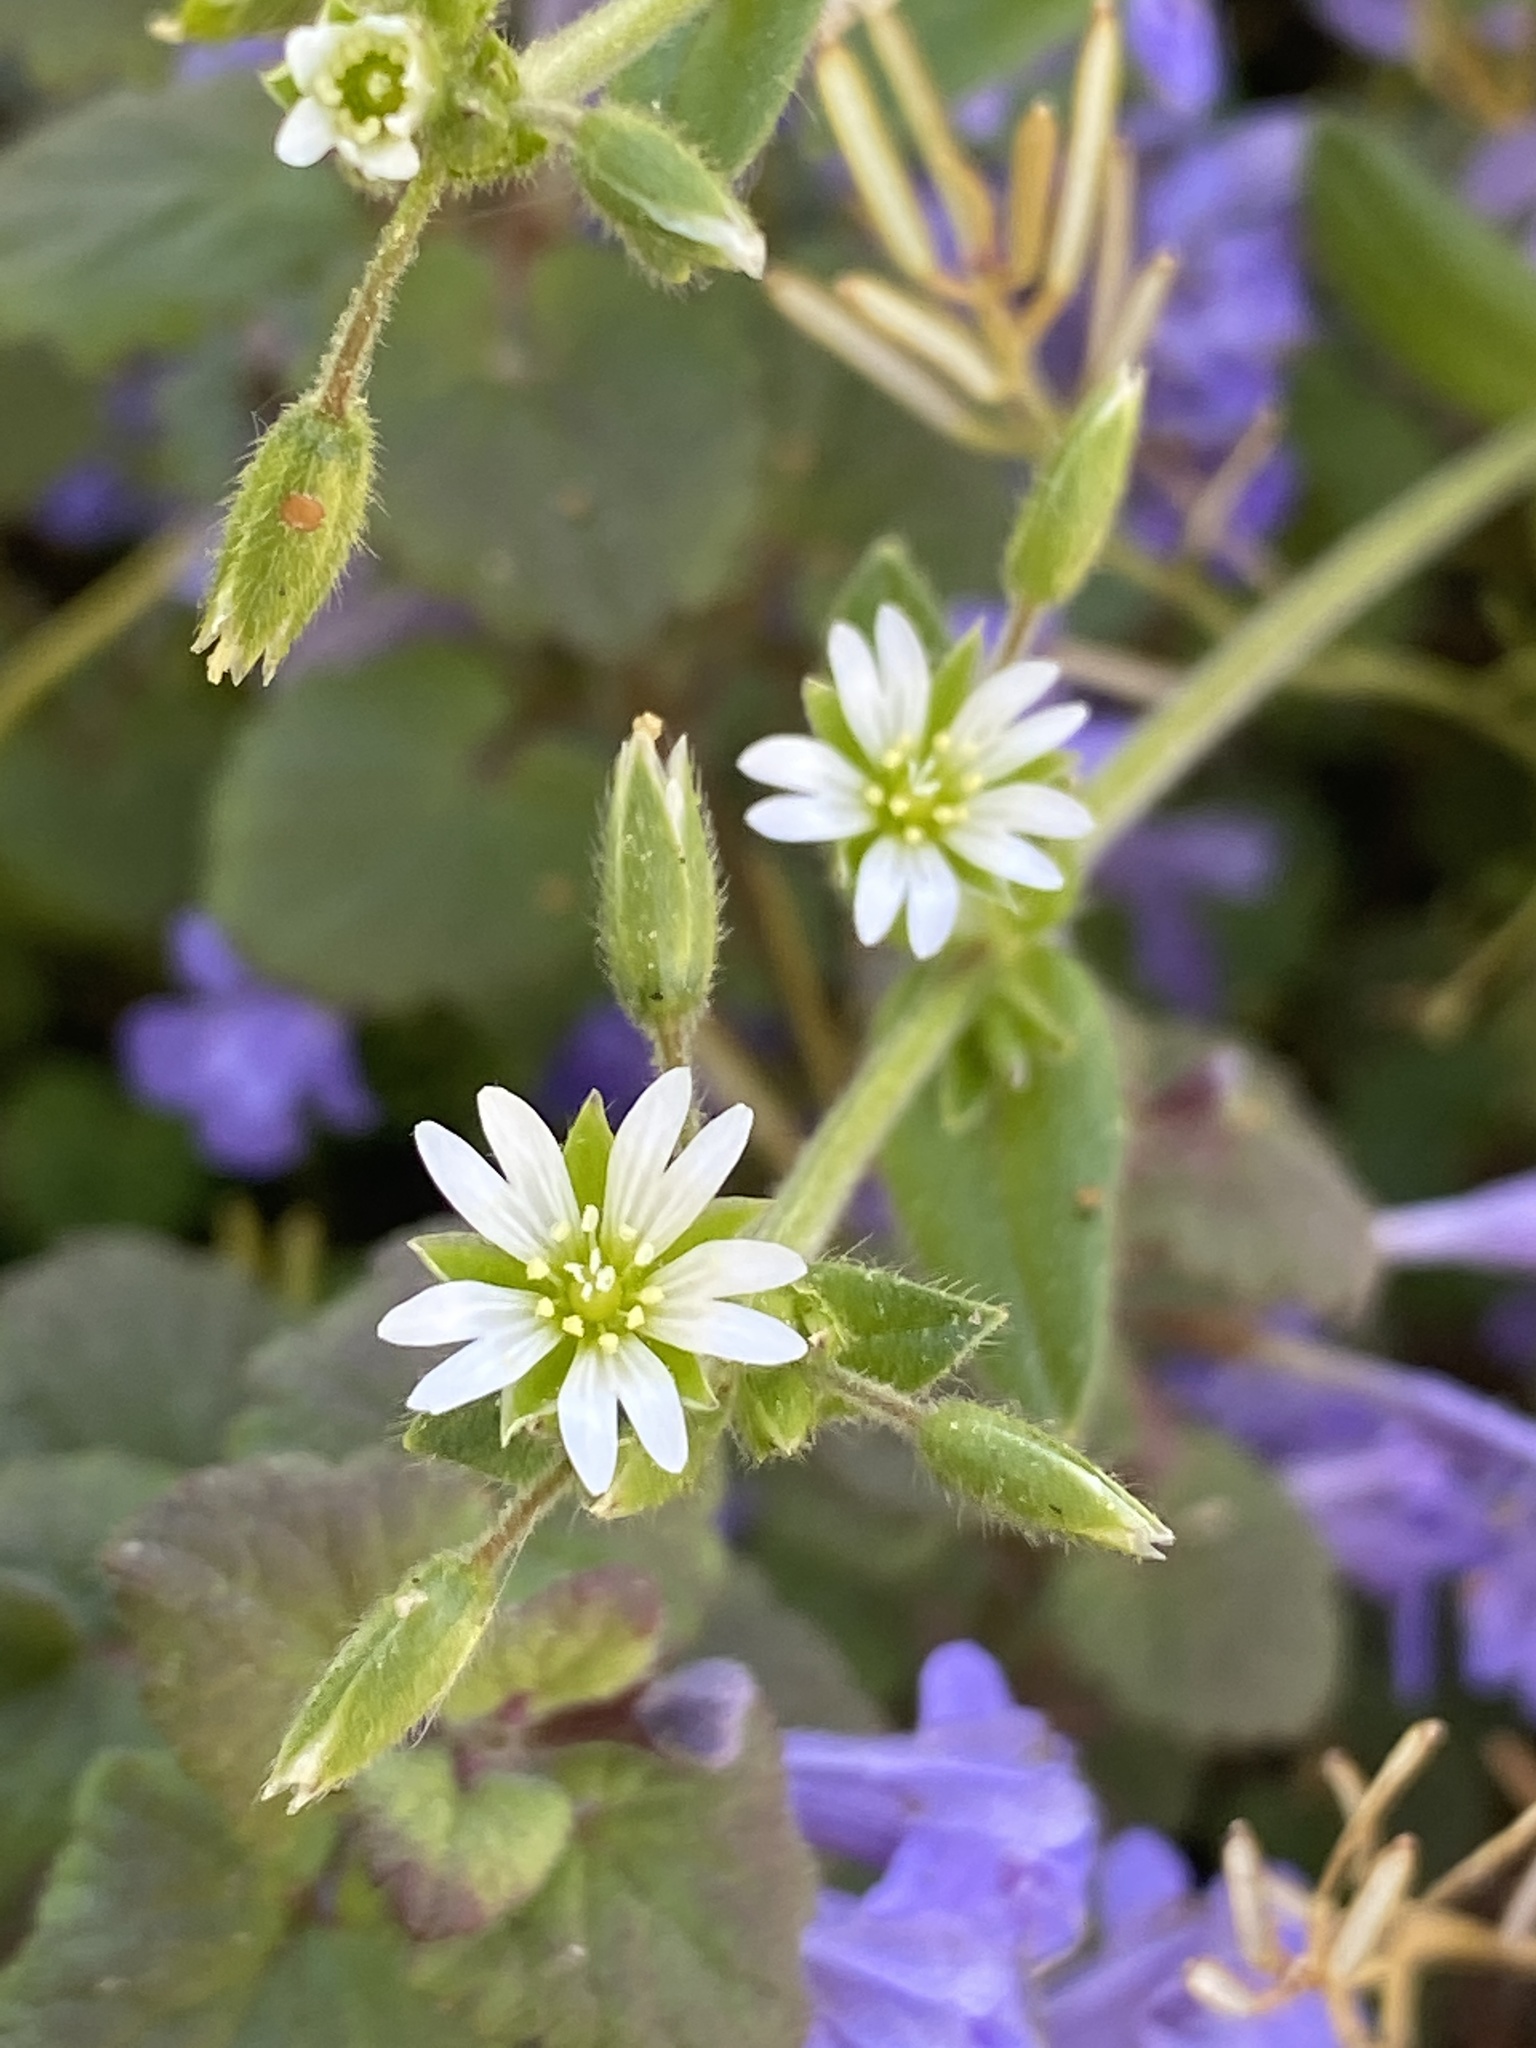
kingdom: Plantae
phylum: Tracheophyta
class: Magnoliopsida
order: Caryophyllales
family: Caryophyllaceae
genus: Cerastium
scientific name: Cerastium fontanum
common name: Common mouse-ear
